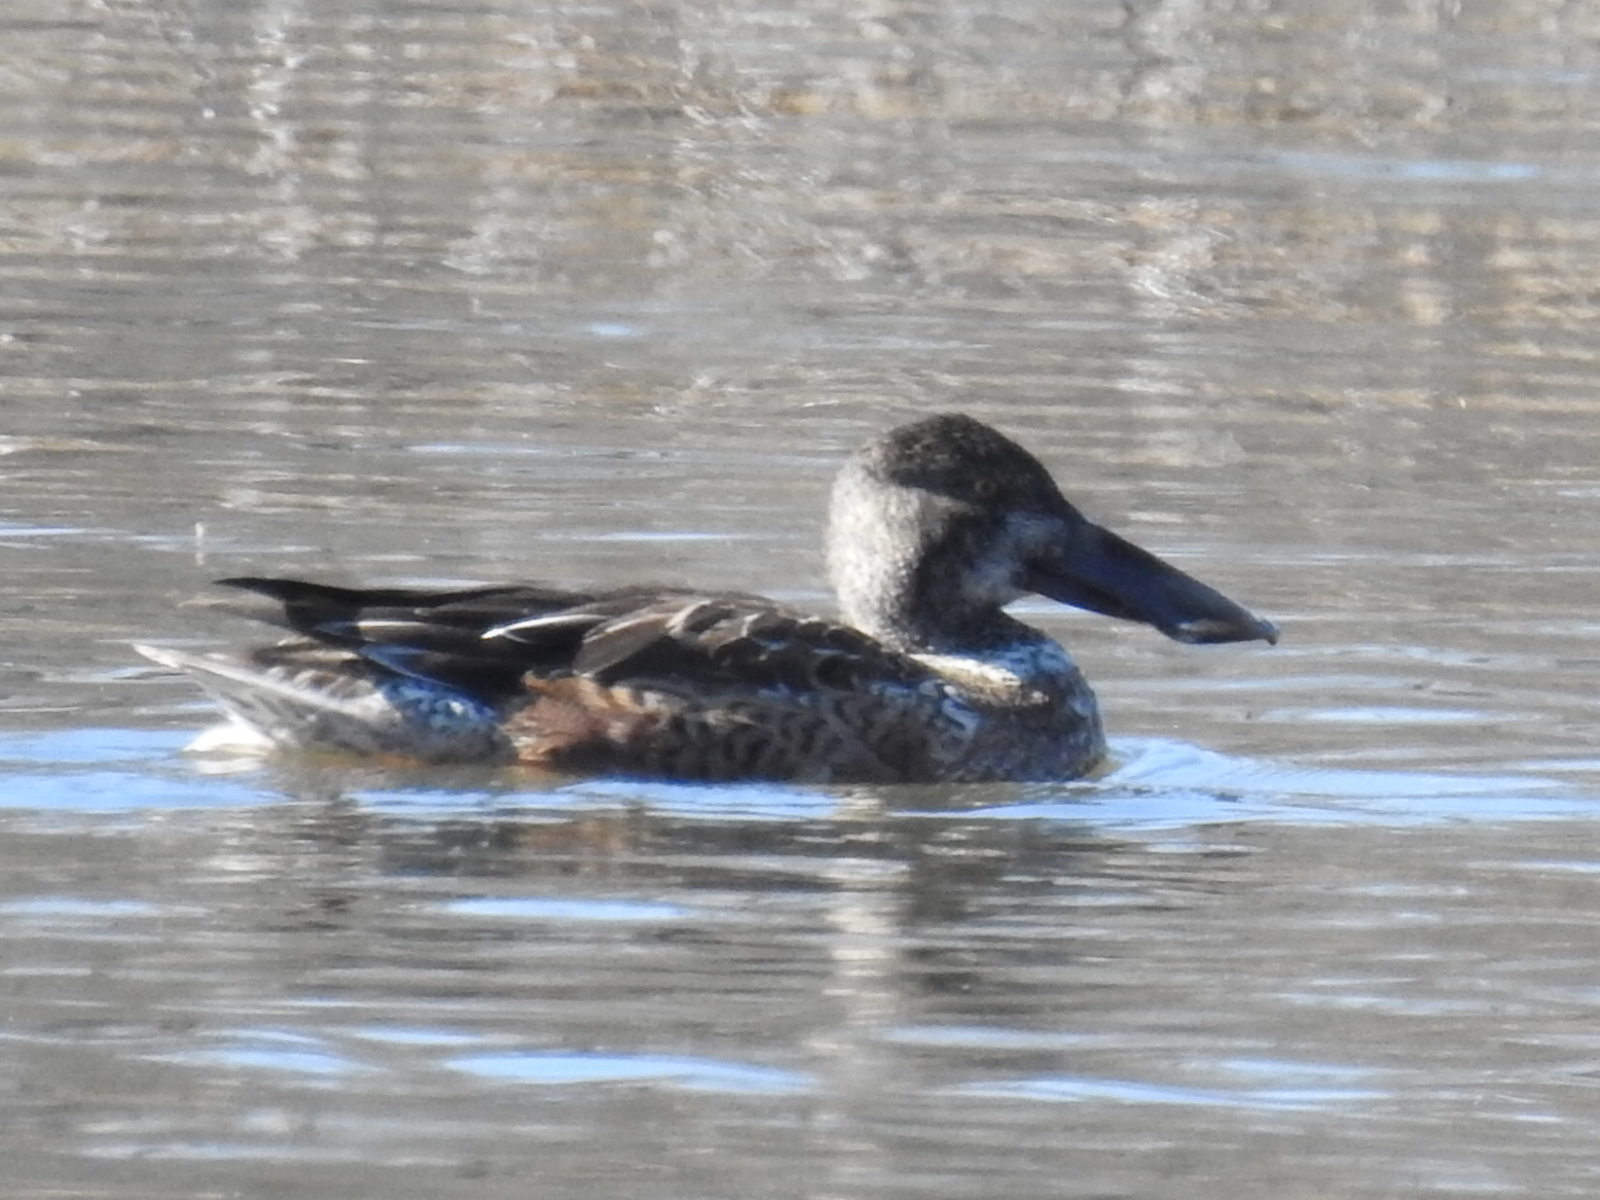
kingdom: Animalia
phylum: Chordata
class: Aves
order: Anseriformes
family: Anatidae
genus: Spatula
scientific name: Spatula clypeata
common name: Northern shoveler
